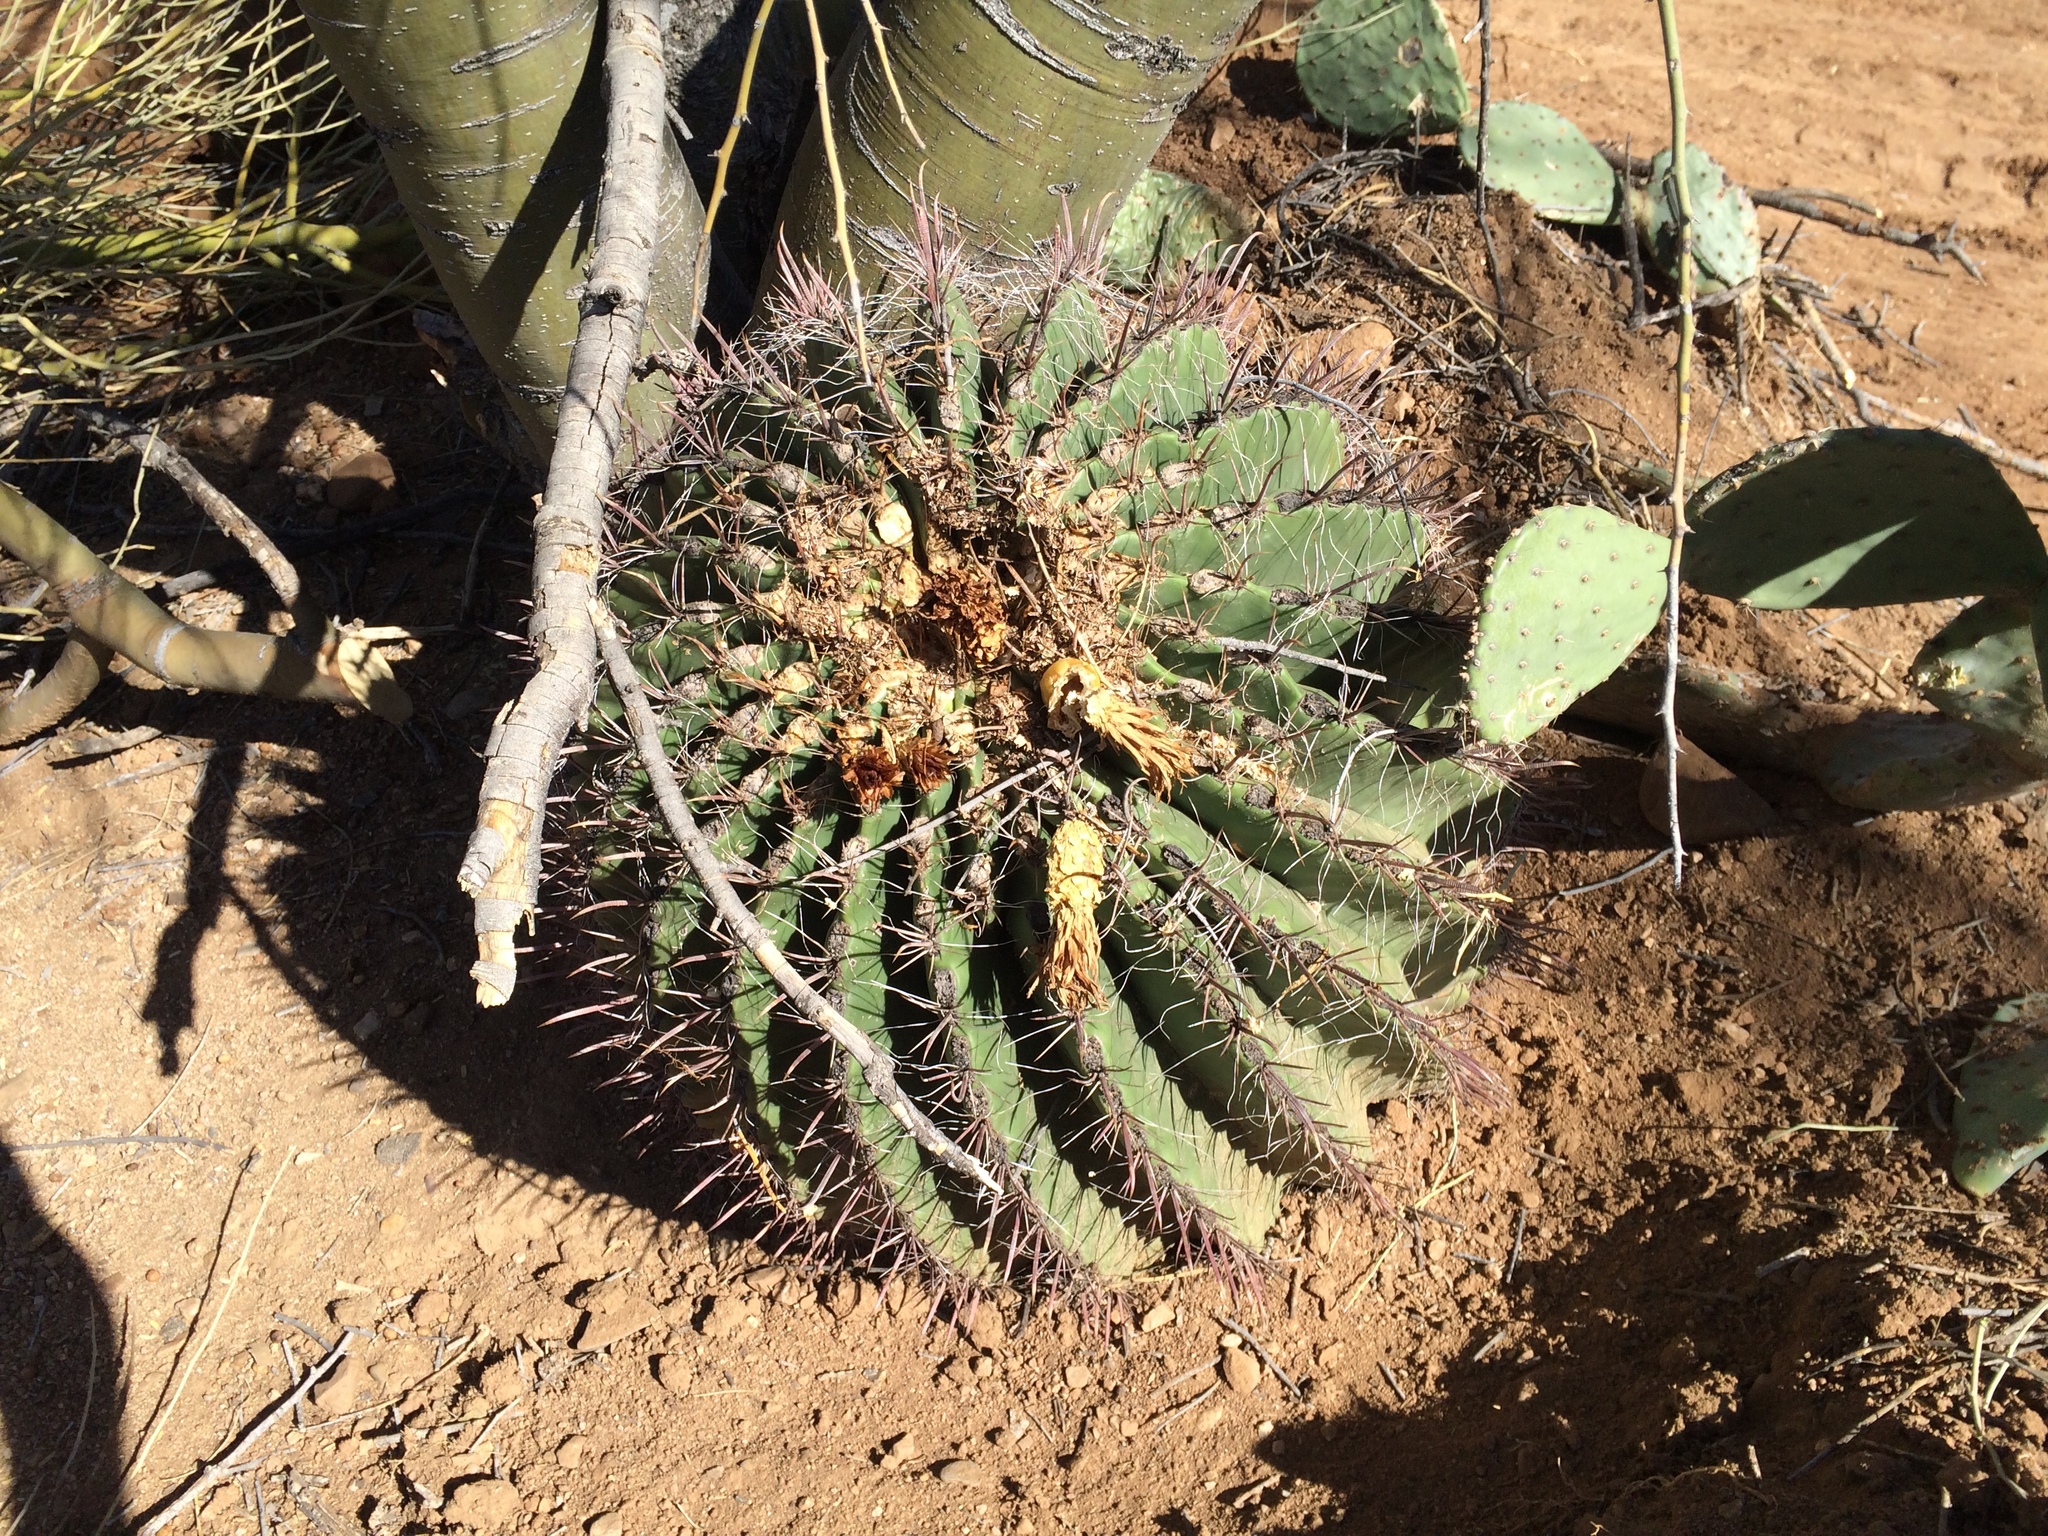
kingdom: Plantae
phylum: Tracheophyta
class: Magnoliopsida
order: Caryophyllales
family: Cactaceae
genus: Ferocactus
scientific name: Ferocactus wislizeni
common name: Candy barrel cactus
